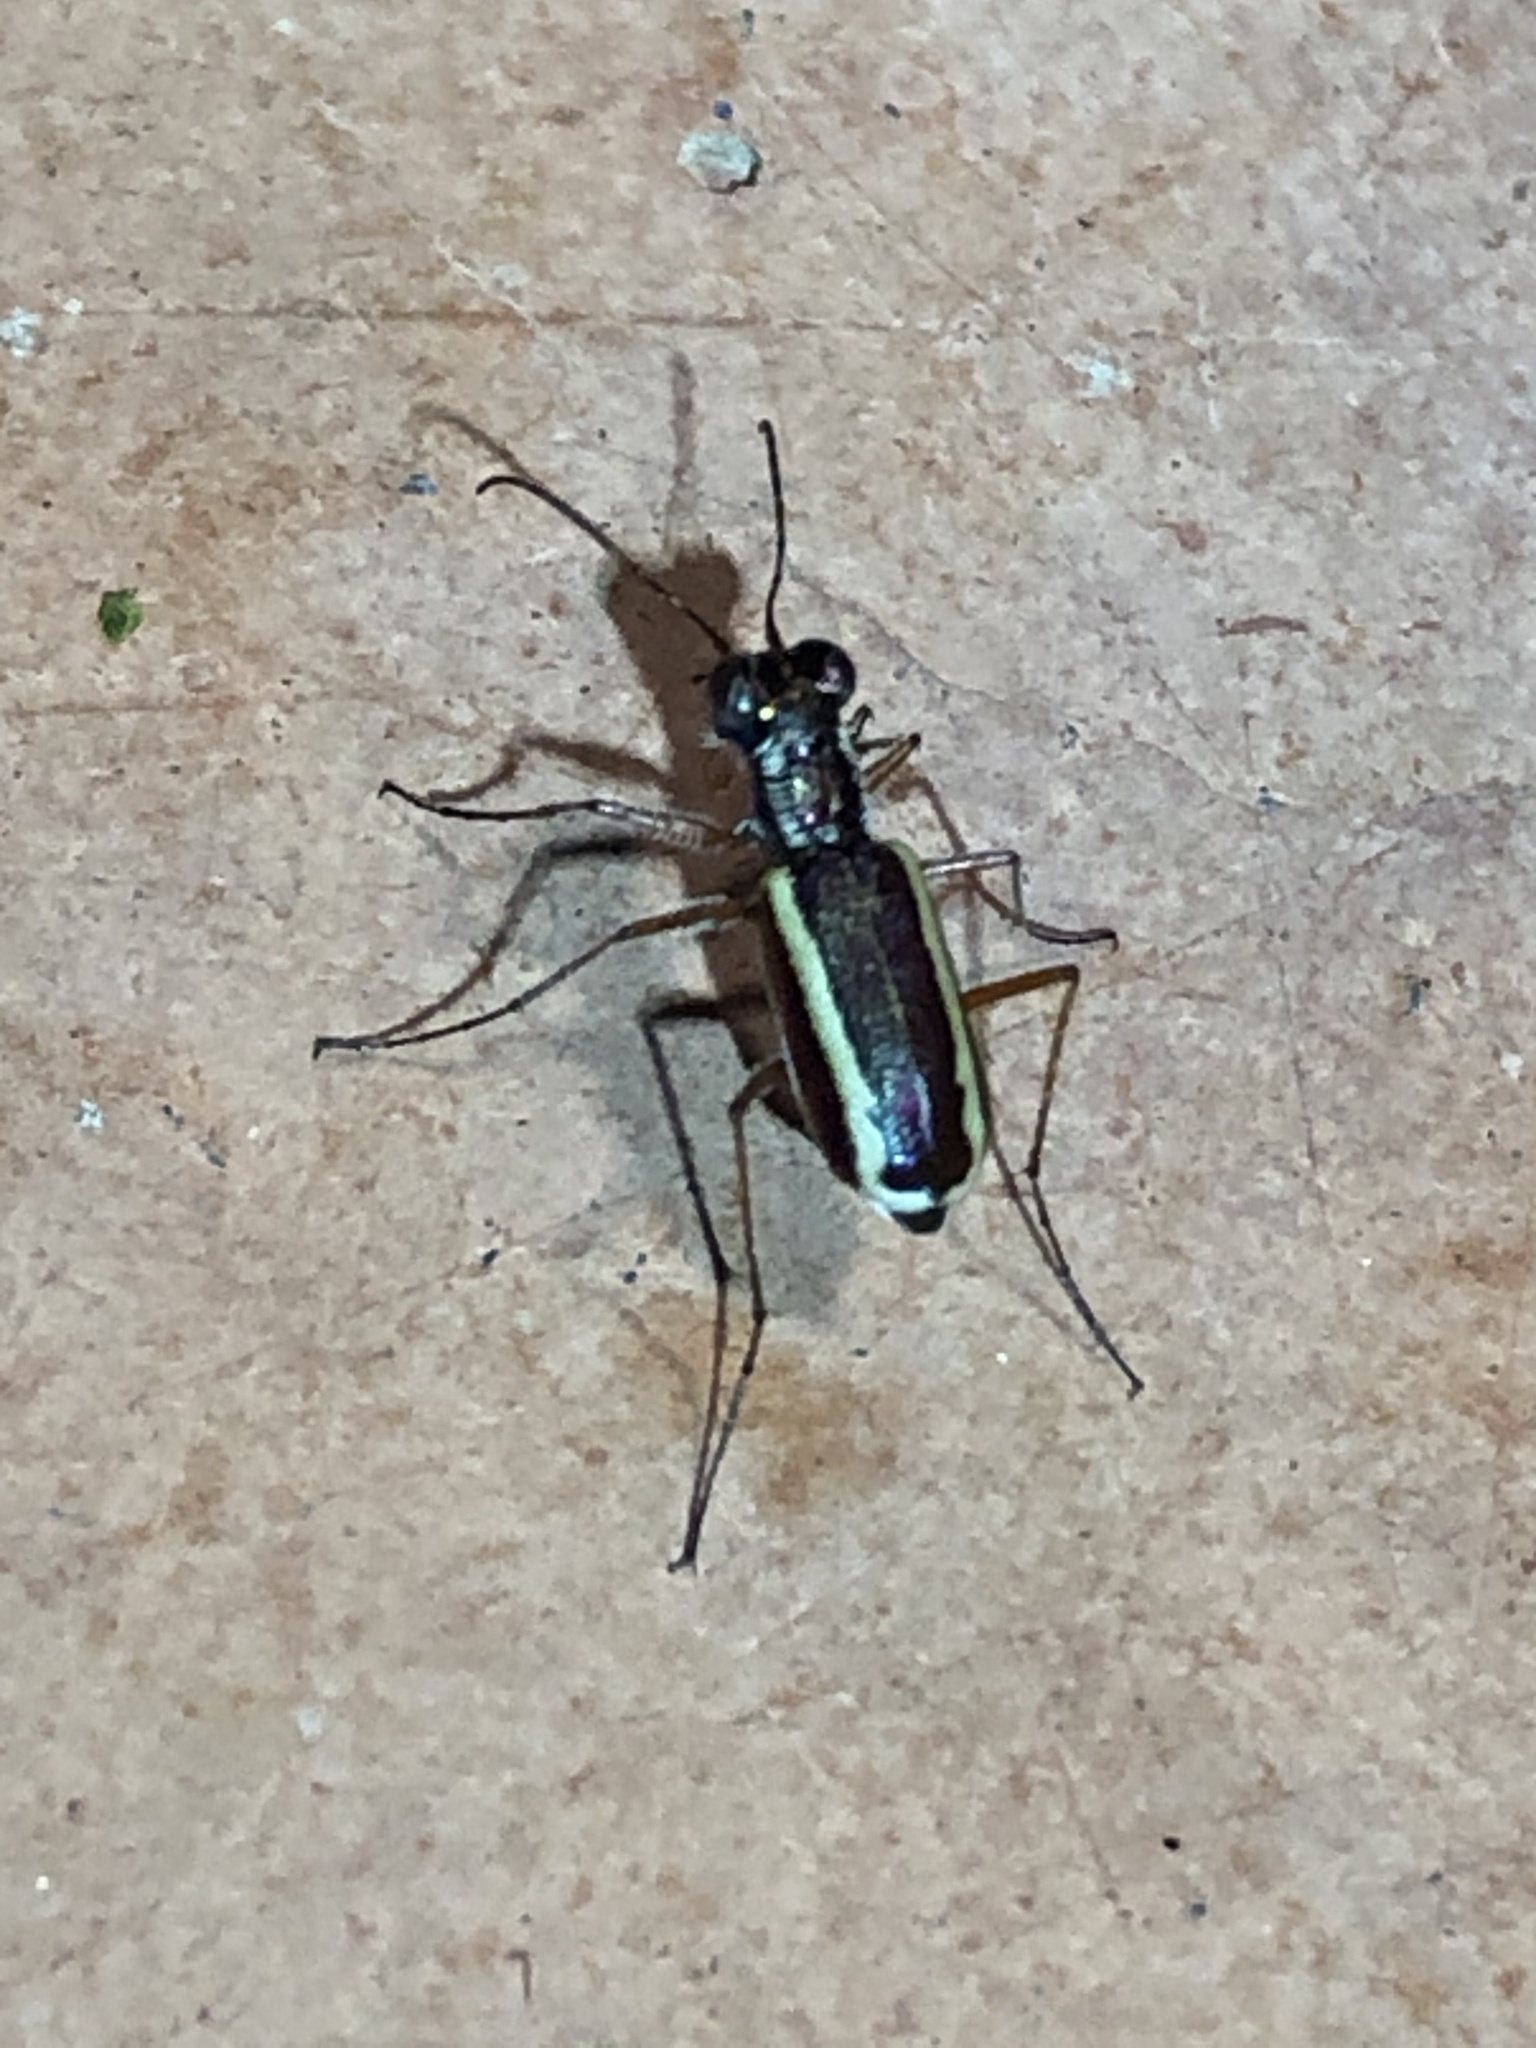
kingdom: Animalia
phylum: Arthropoda
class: Insecta
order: Coleoptera
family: Carabidae
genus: Cylindera
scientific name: Cylindera lemniscata
